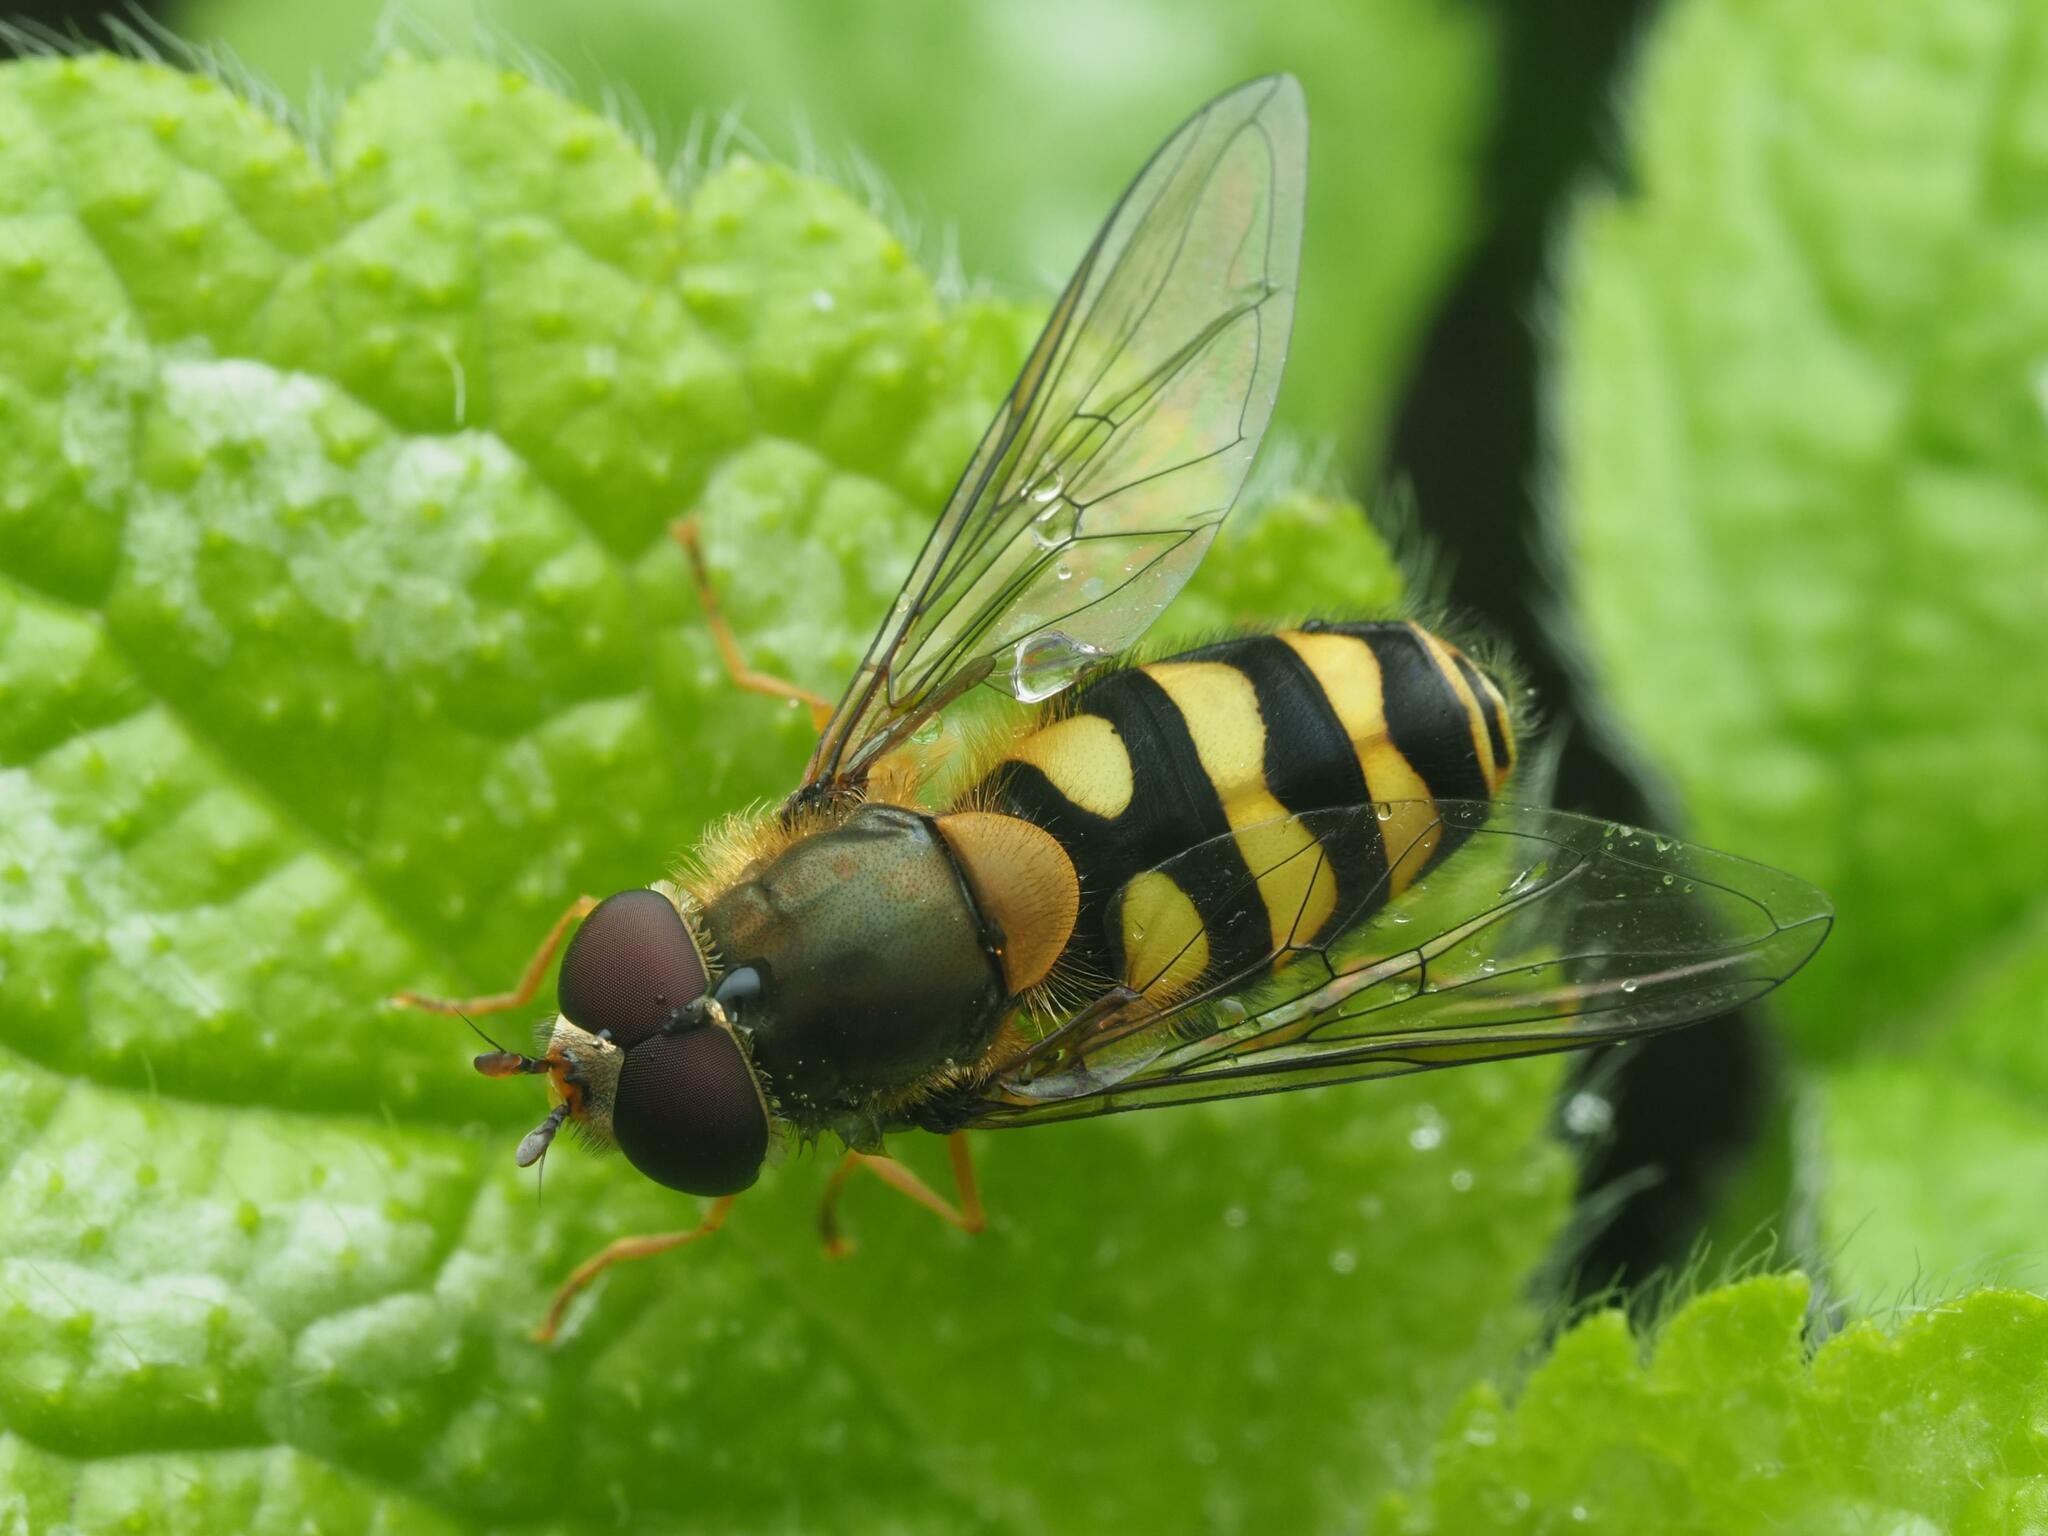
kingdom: Animalia
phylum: Arthropoda
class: Insecta
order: Diptera
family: Syrphidae
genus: Syrphus
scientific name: Syrphus ribesii
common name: Common flower fly
